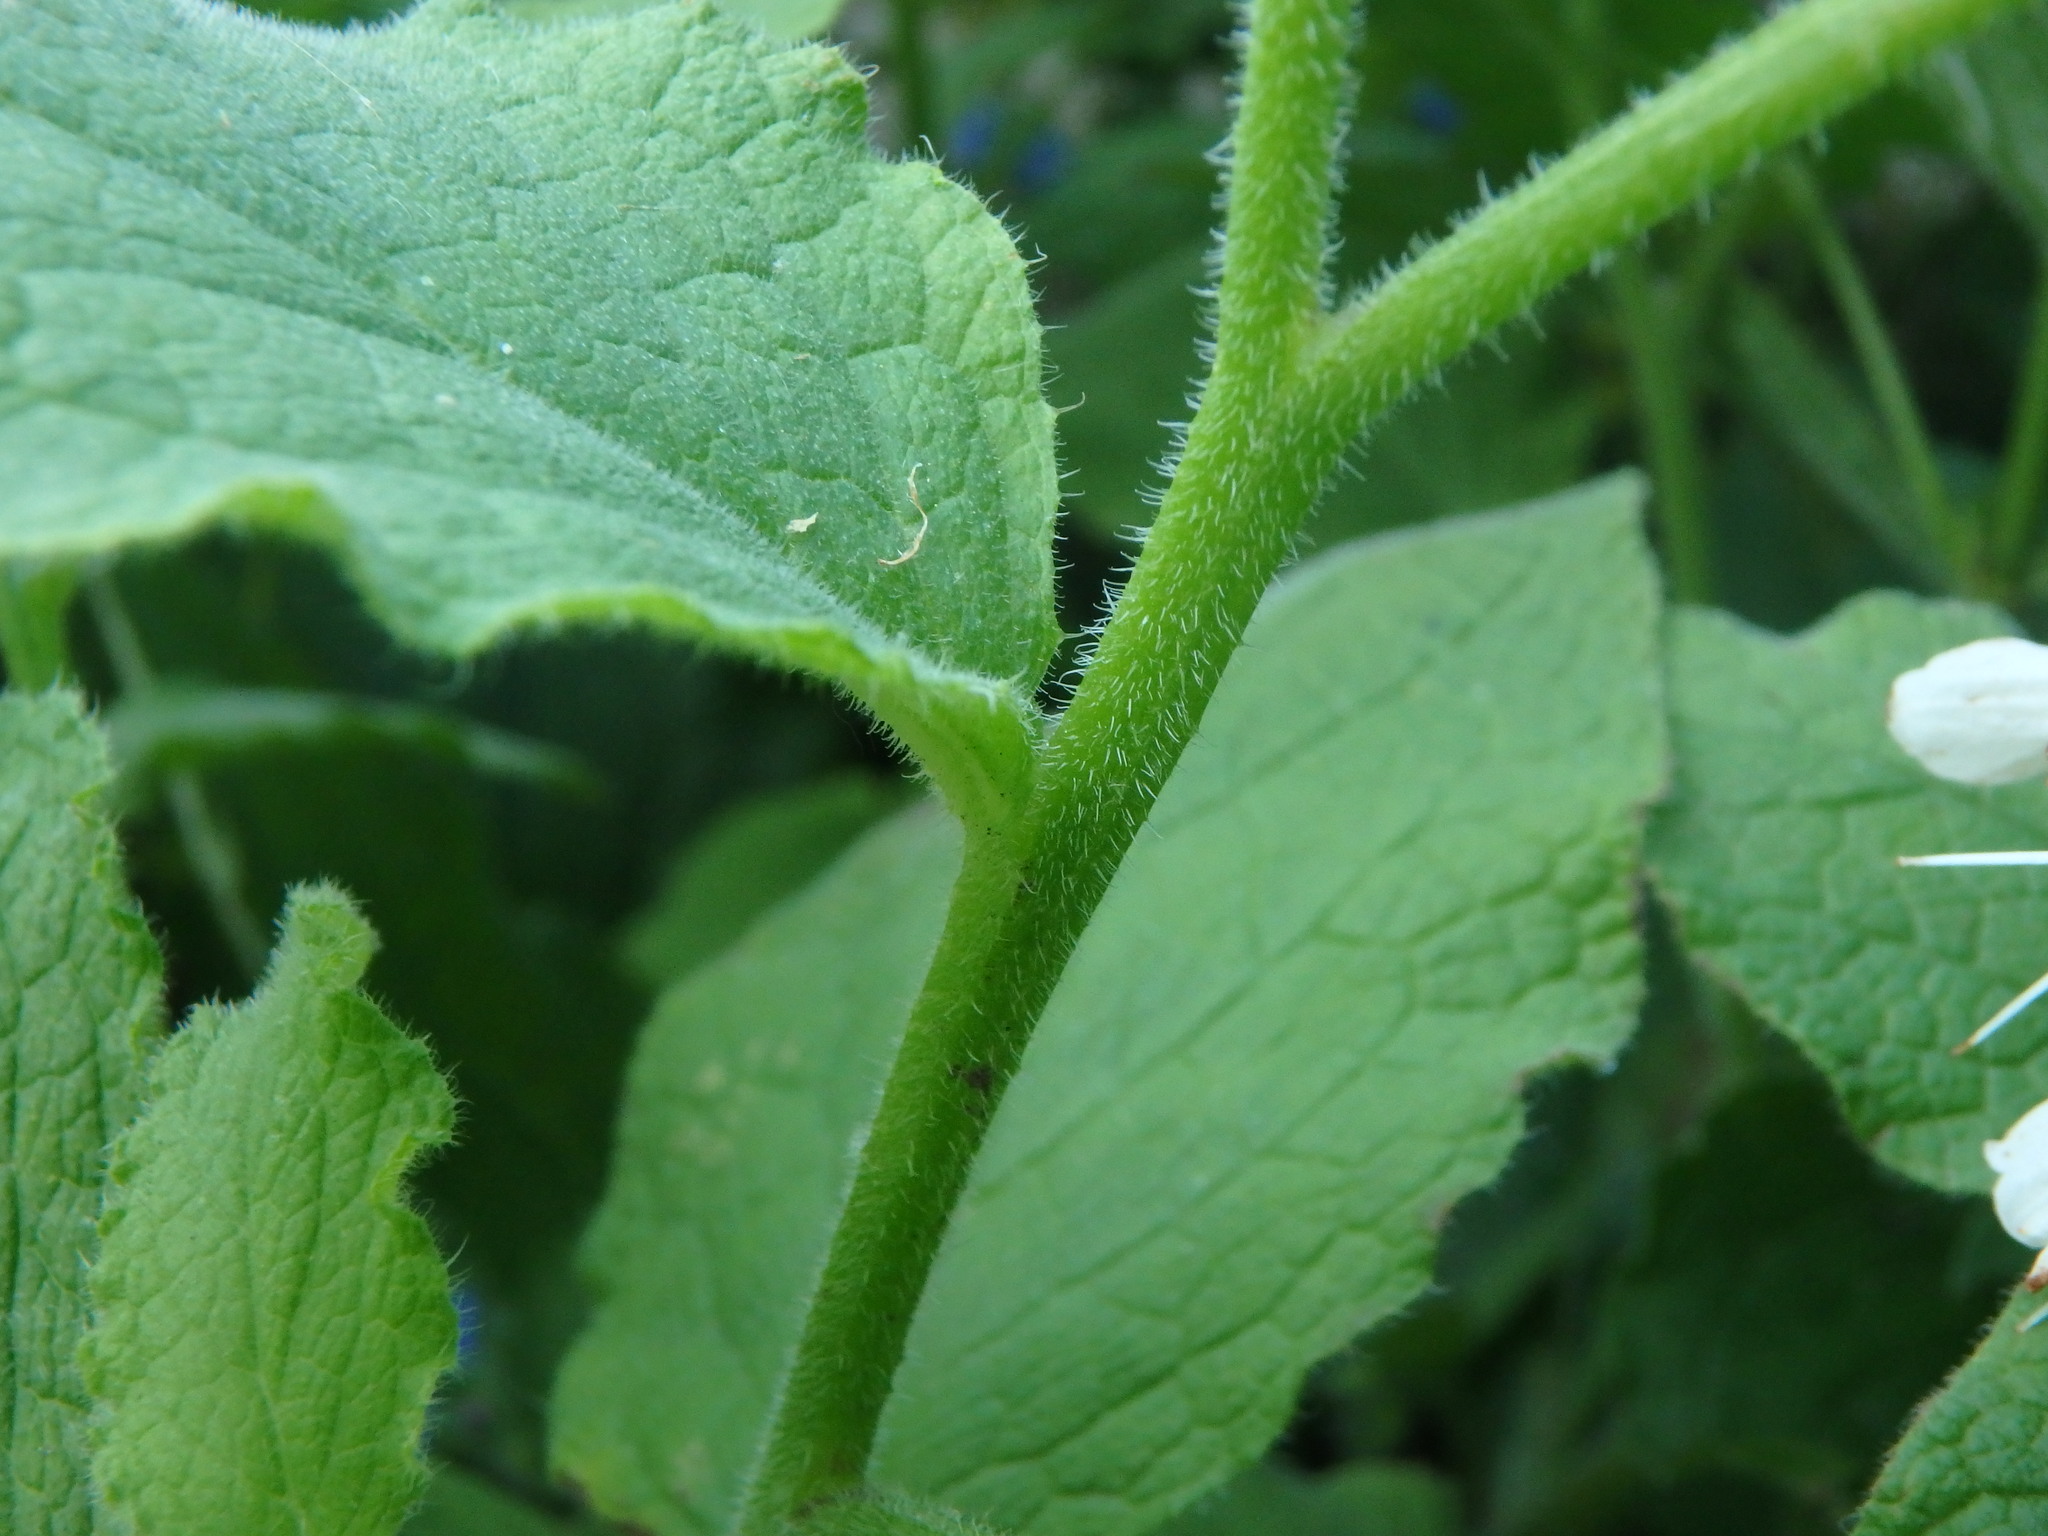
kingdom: Plantae
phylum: Tracheophyta
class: Magnoliopsida
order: Boraginales
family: Boraginaceae
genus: Symphytum
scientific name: Symphytum orientale
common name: White comfrey
